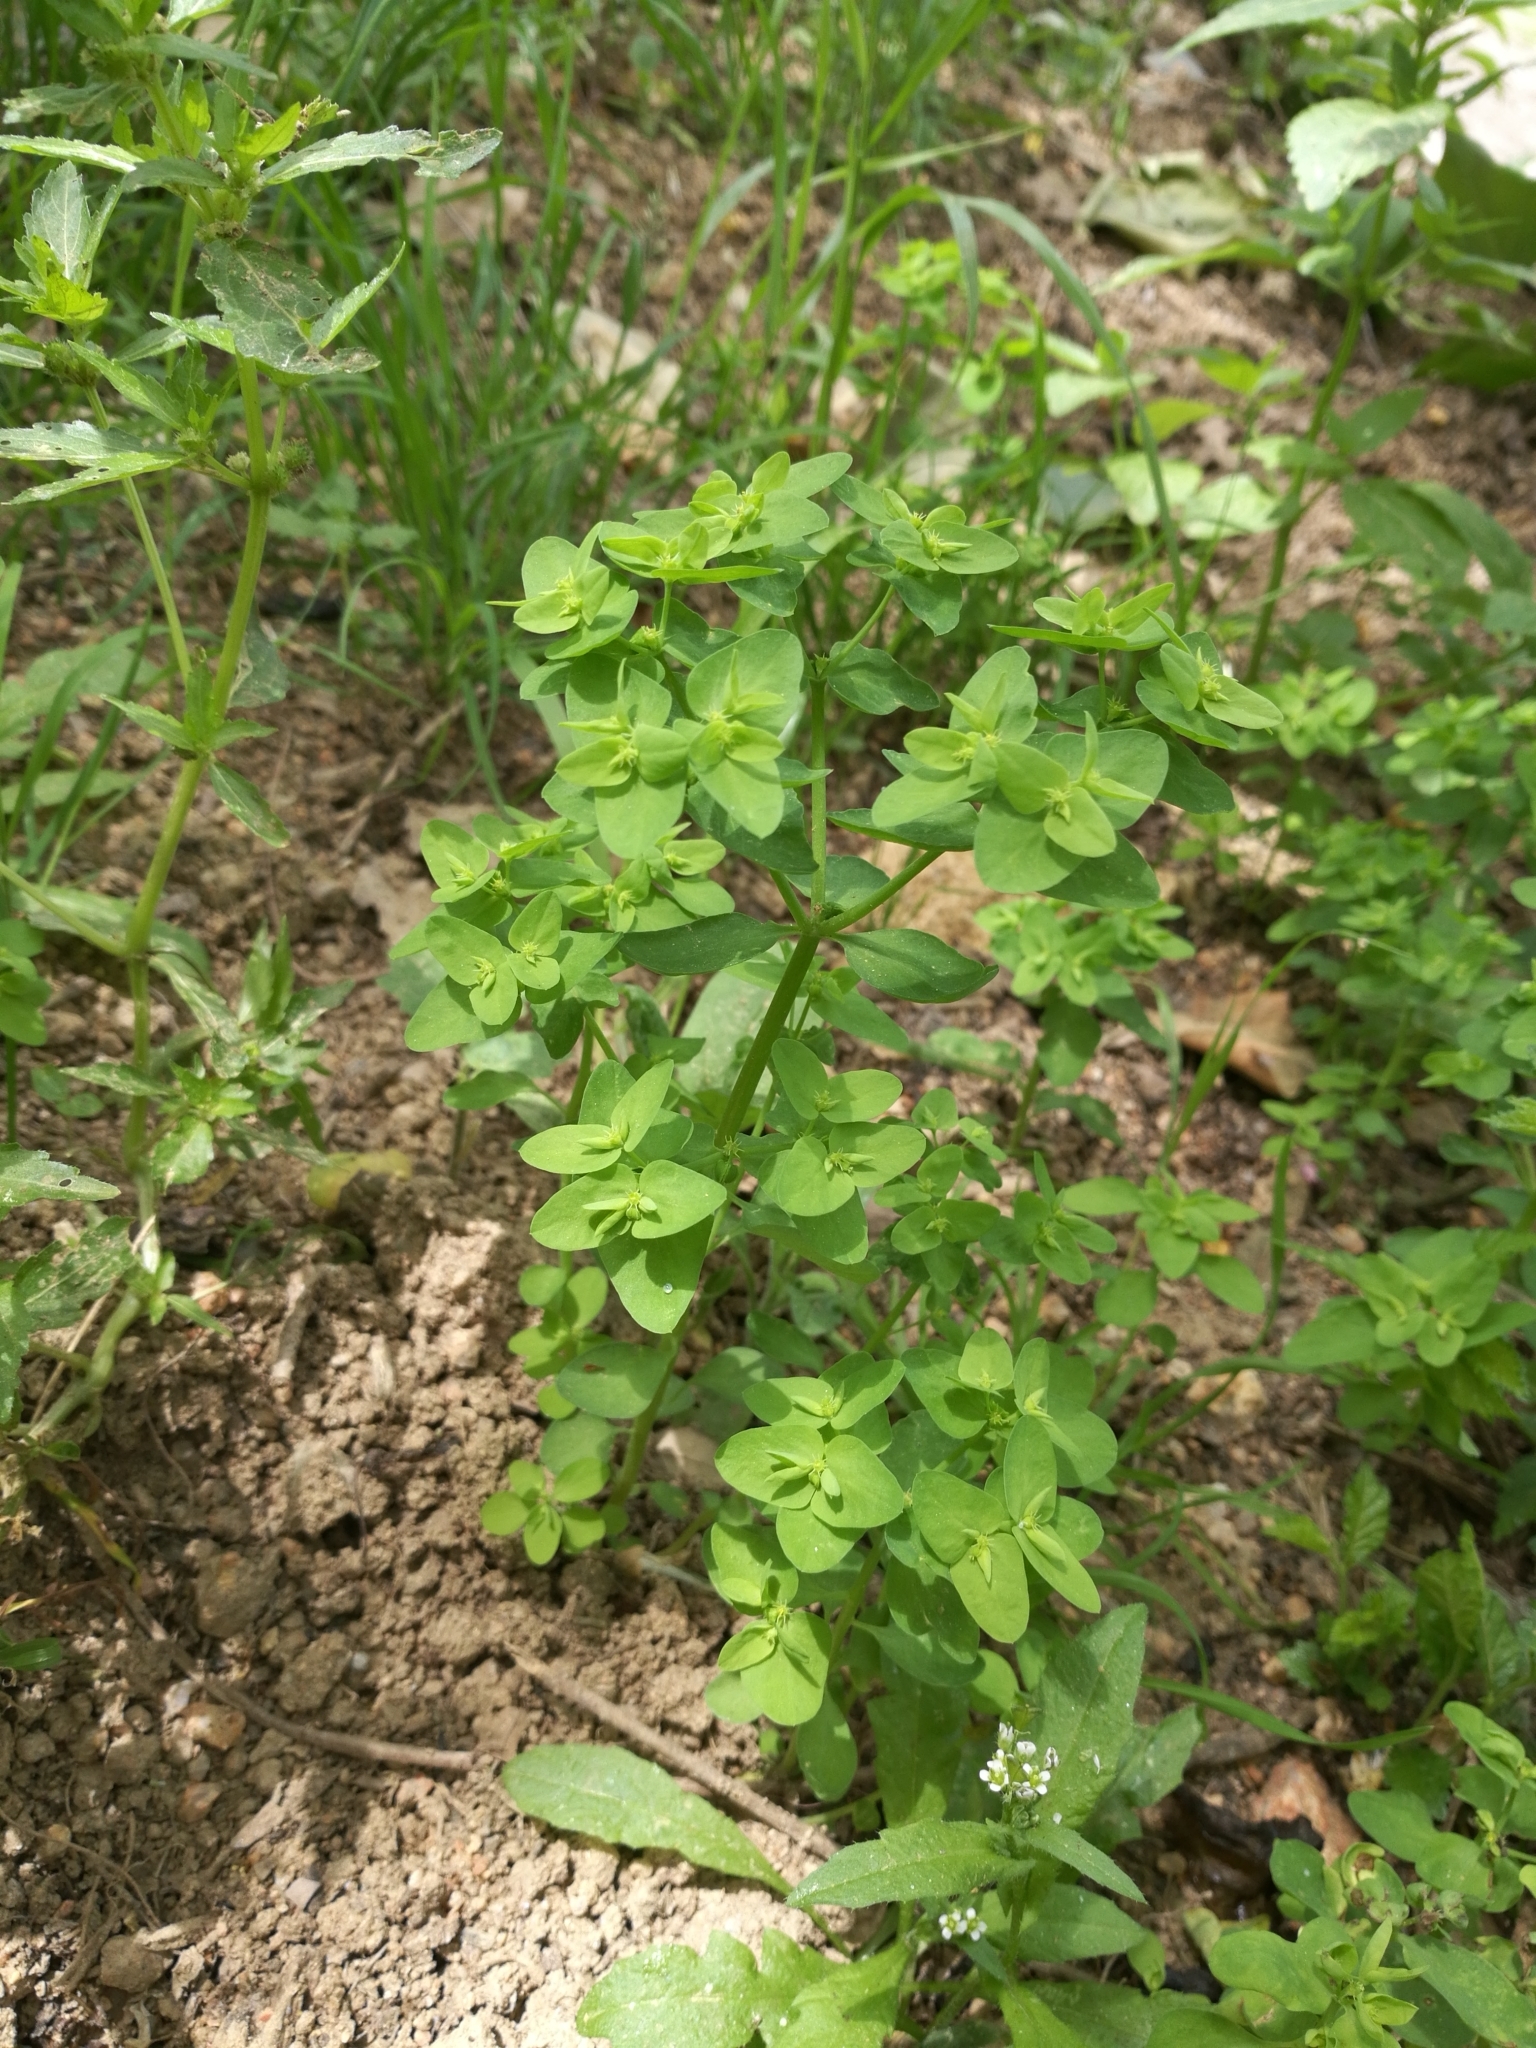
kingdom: Plantae
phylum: Tracheophyta
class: Magnoliopsida
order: Malpighiales
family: Euphorbiaceae
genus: Euphorbia
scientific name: Euphorbia peplus
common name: Petty spurge
